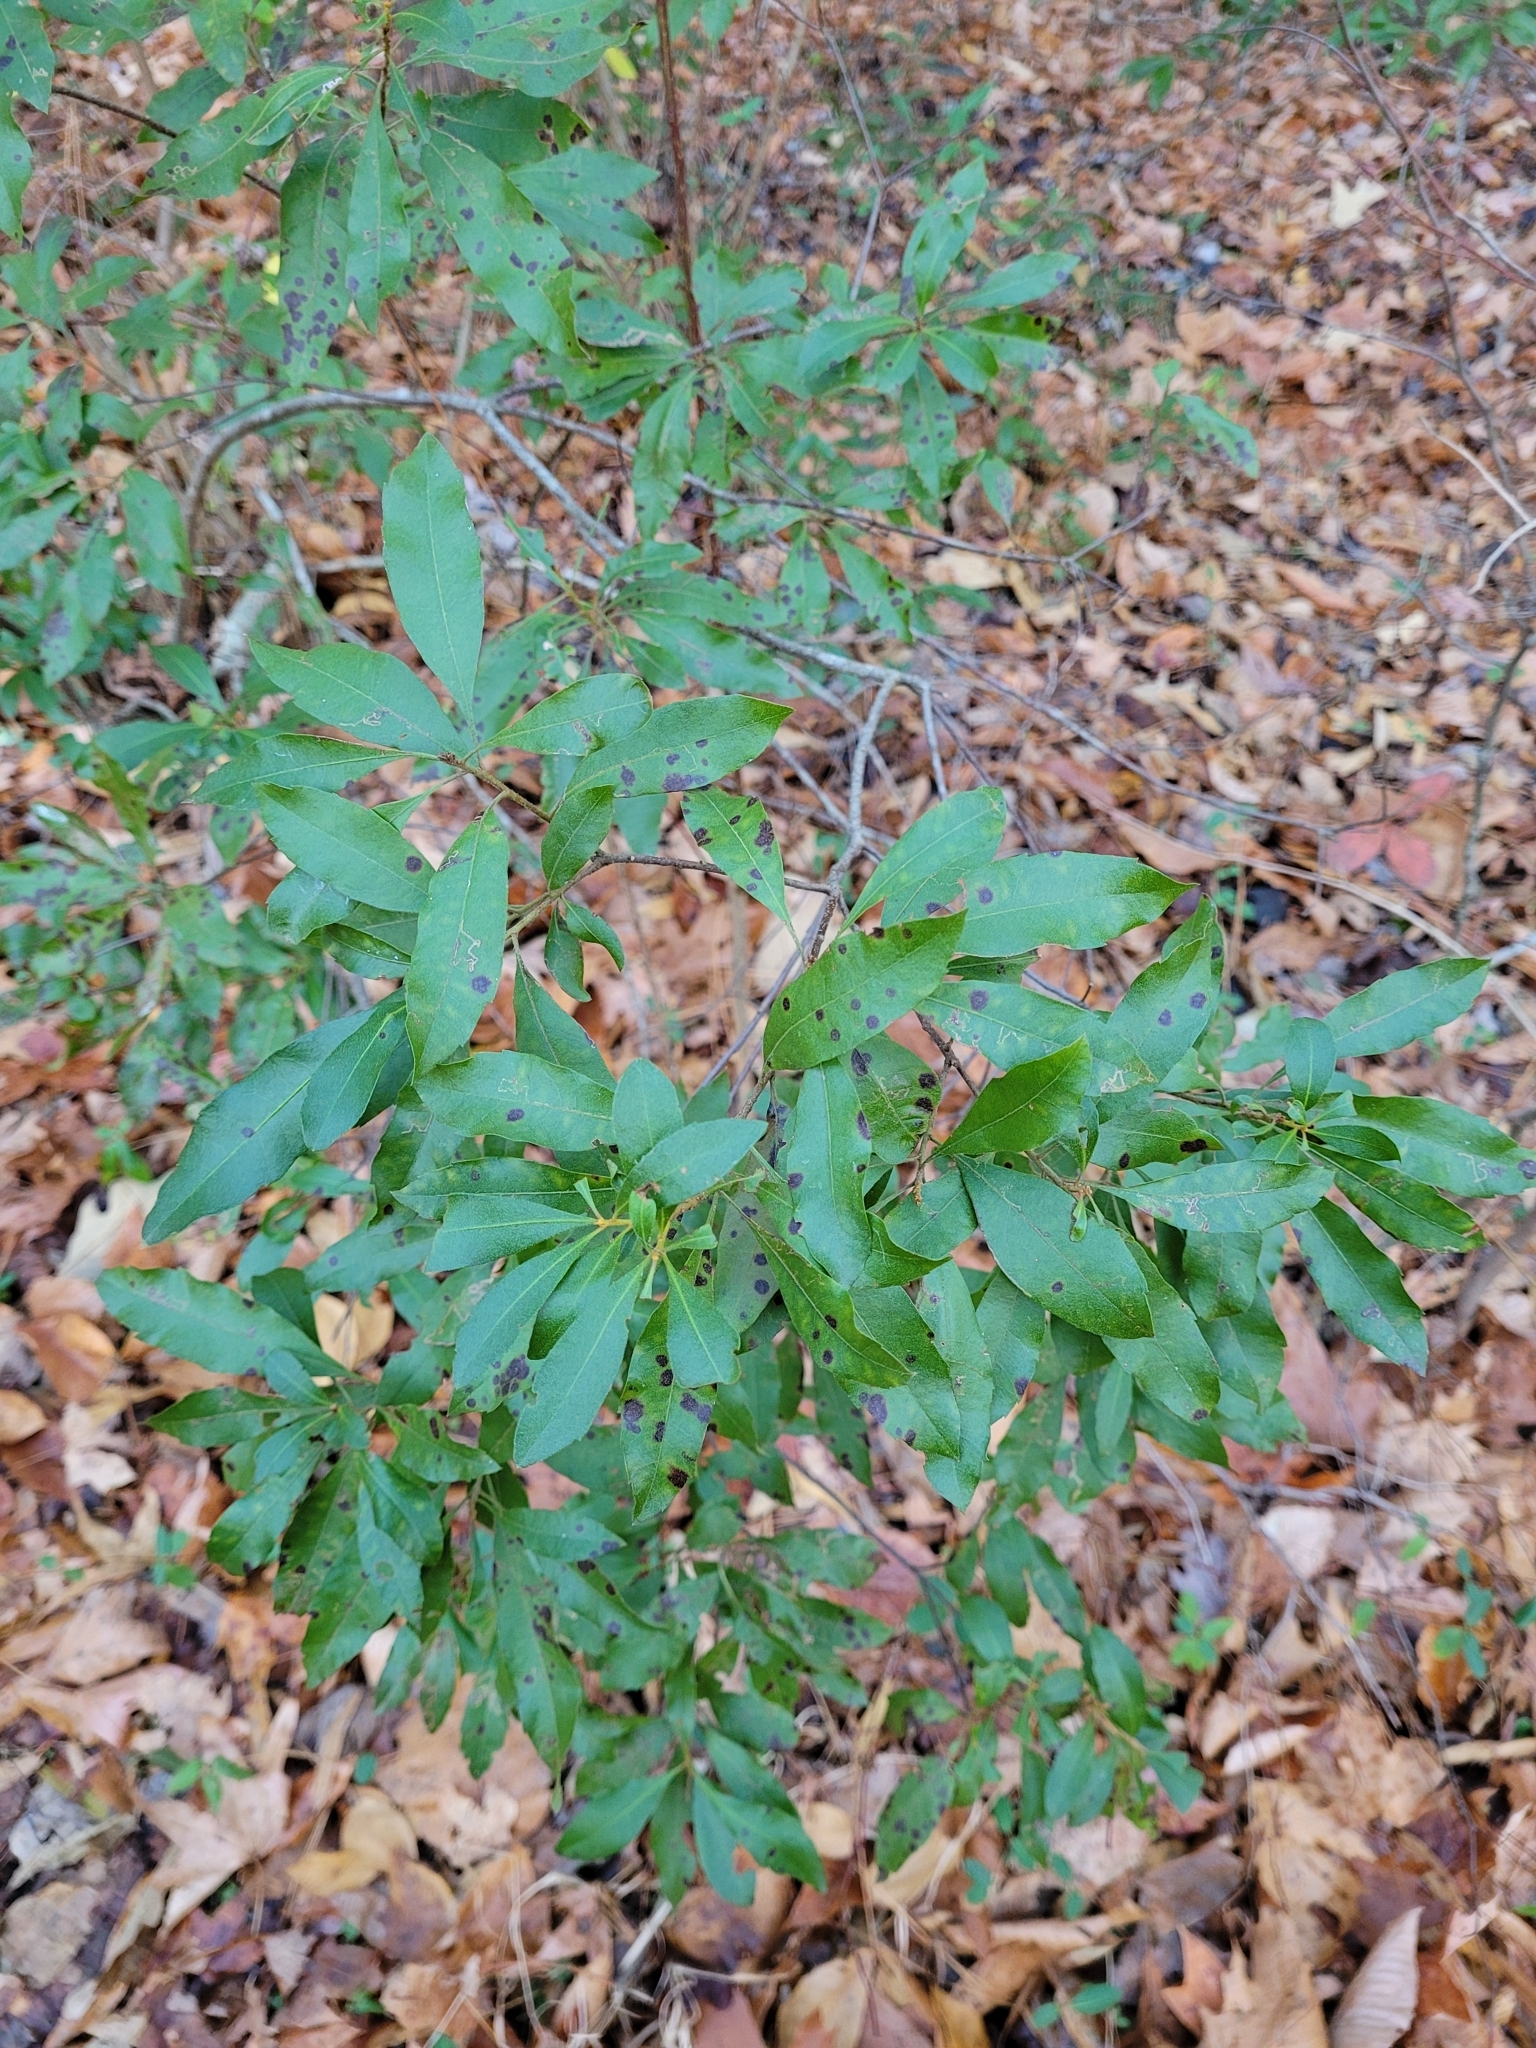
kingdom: Plantae
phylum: Tracheophyta
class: Magnoliopsida
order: Fagales
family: Myricaceae
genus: Morella
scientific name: Morella cerifera
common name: Wax myrtle
